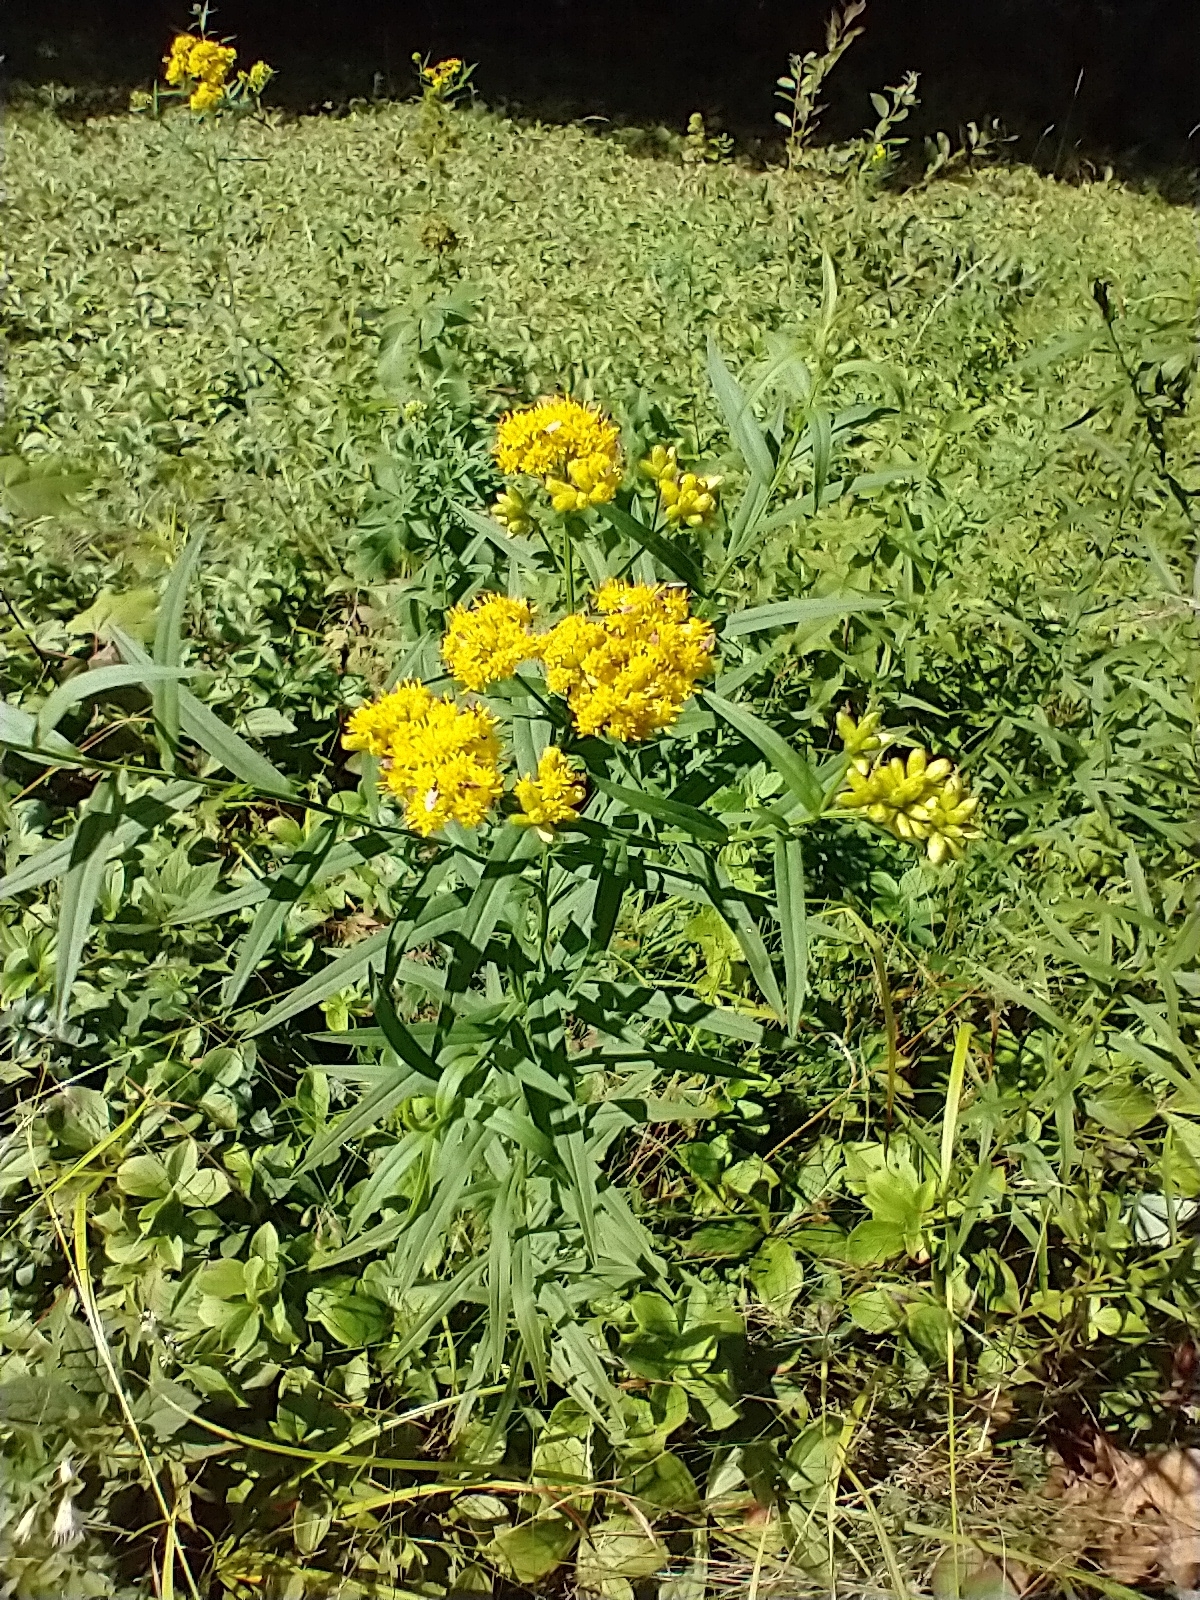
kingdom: Plantae
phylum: Tracheophyta
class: Magnoliopsida
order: Asterales
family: Asteraceae
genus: Euthamia
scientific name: Euthamia graminifolia
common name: Common goldentop
